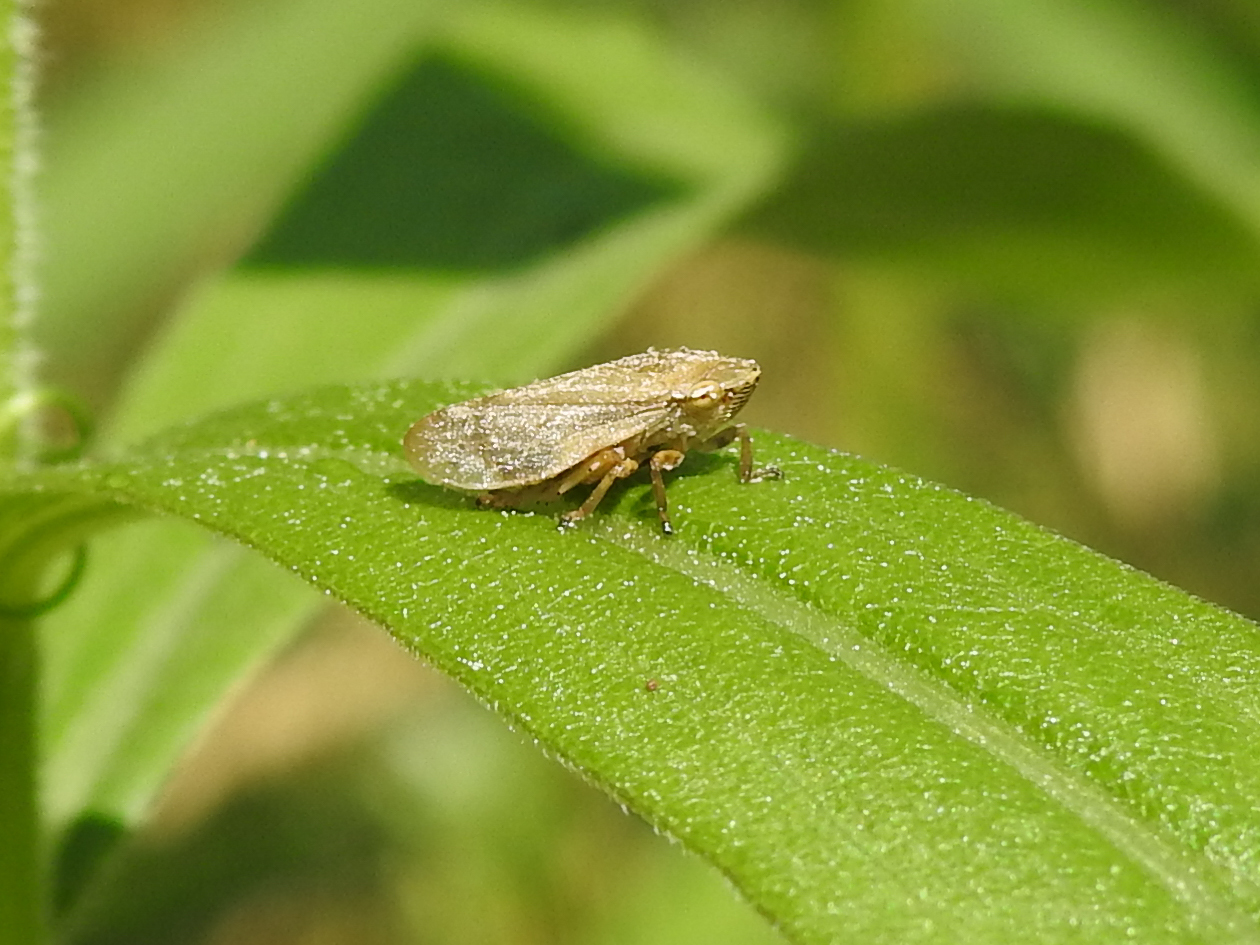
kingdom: Animalia
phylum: Arthropoda
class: Insecta
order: Hemiptera
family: Aphrophoridae
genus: Philaenus
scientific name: Philaenus spumarius
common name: Meadow spittlebug
